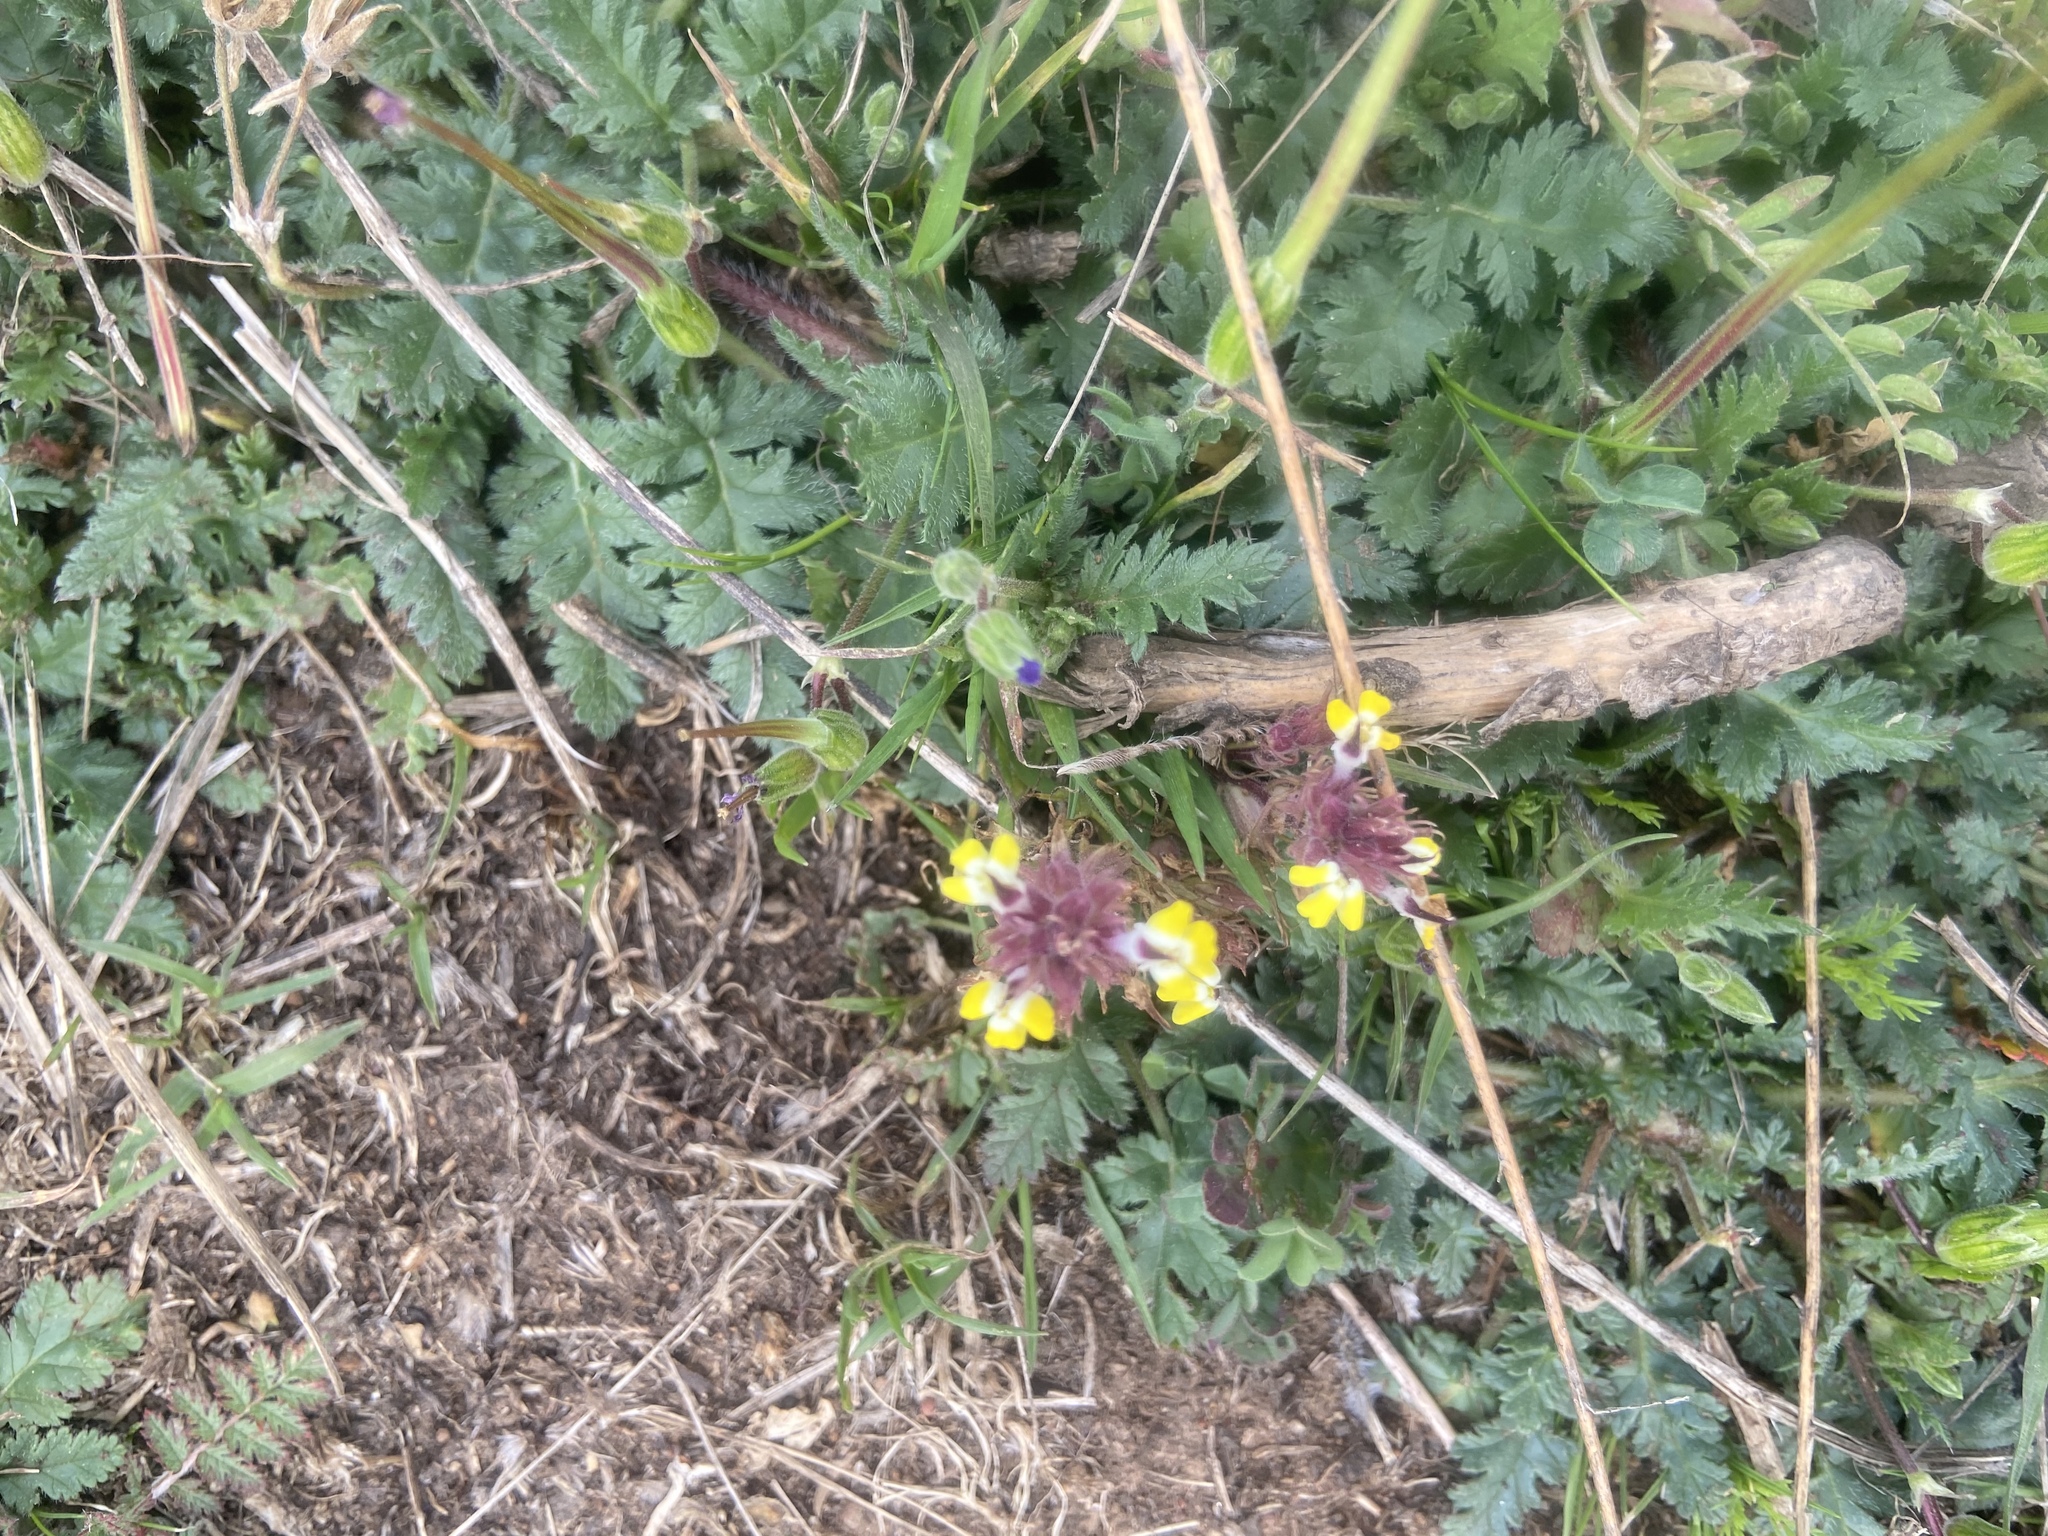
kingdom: Plantae
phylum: Tracheophyta
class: Magnoliopsida
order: Lamiales
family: Orobanchaceae
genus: Triphysaria
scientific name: Triphysaria eriantha
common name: Johnny-tuck
